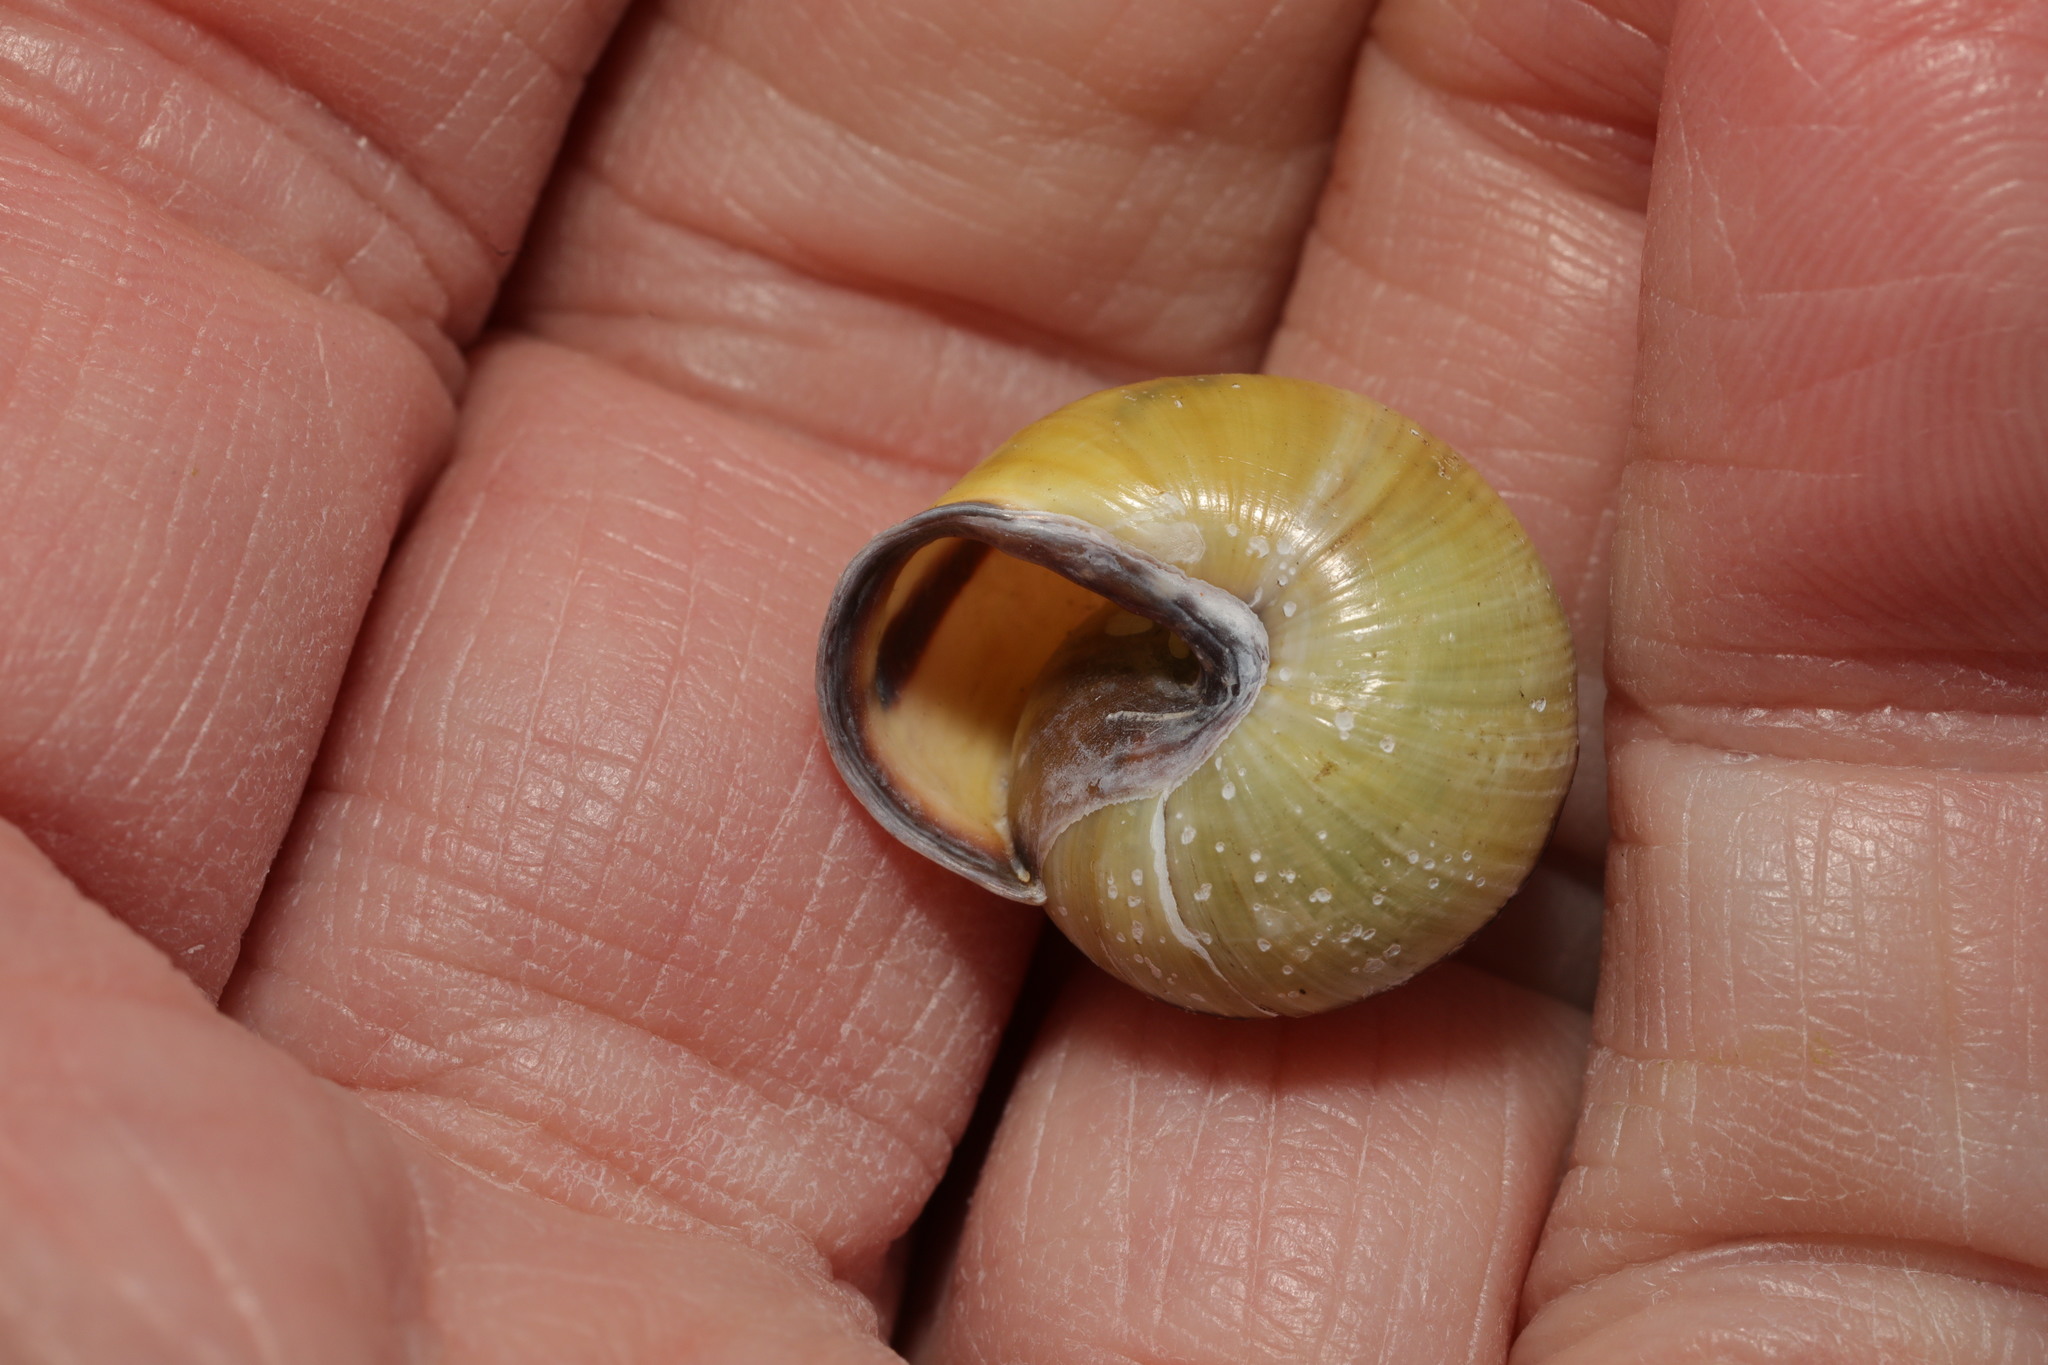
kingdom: Animalia
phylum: Mollusca
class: Gastropoda
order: Stylommatophora
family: Helicidae
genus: Cepaea
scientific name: Cepaea nemoralis
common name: Grovesnail
